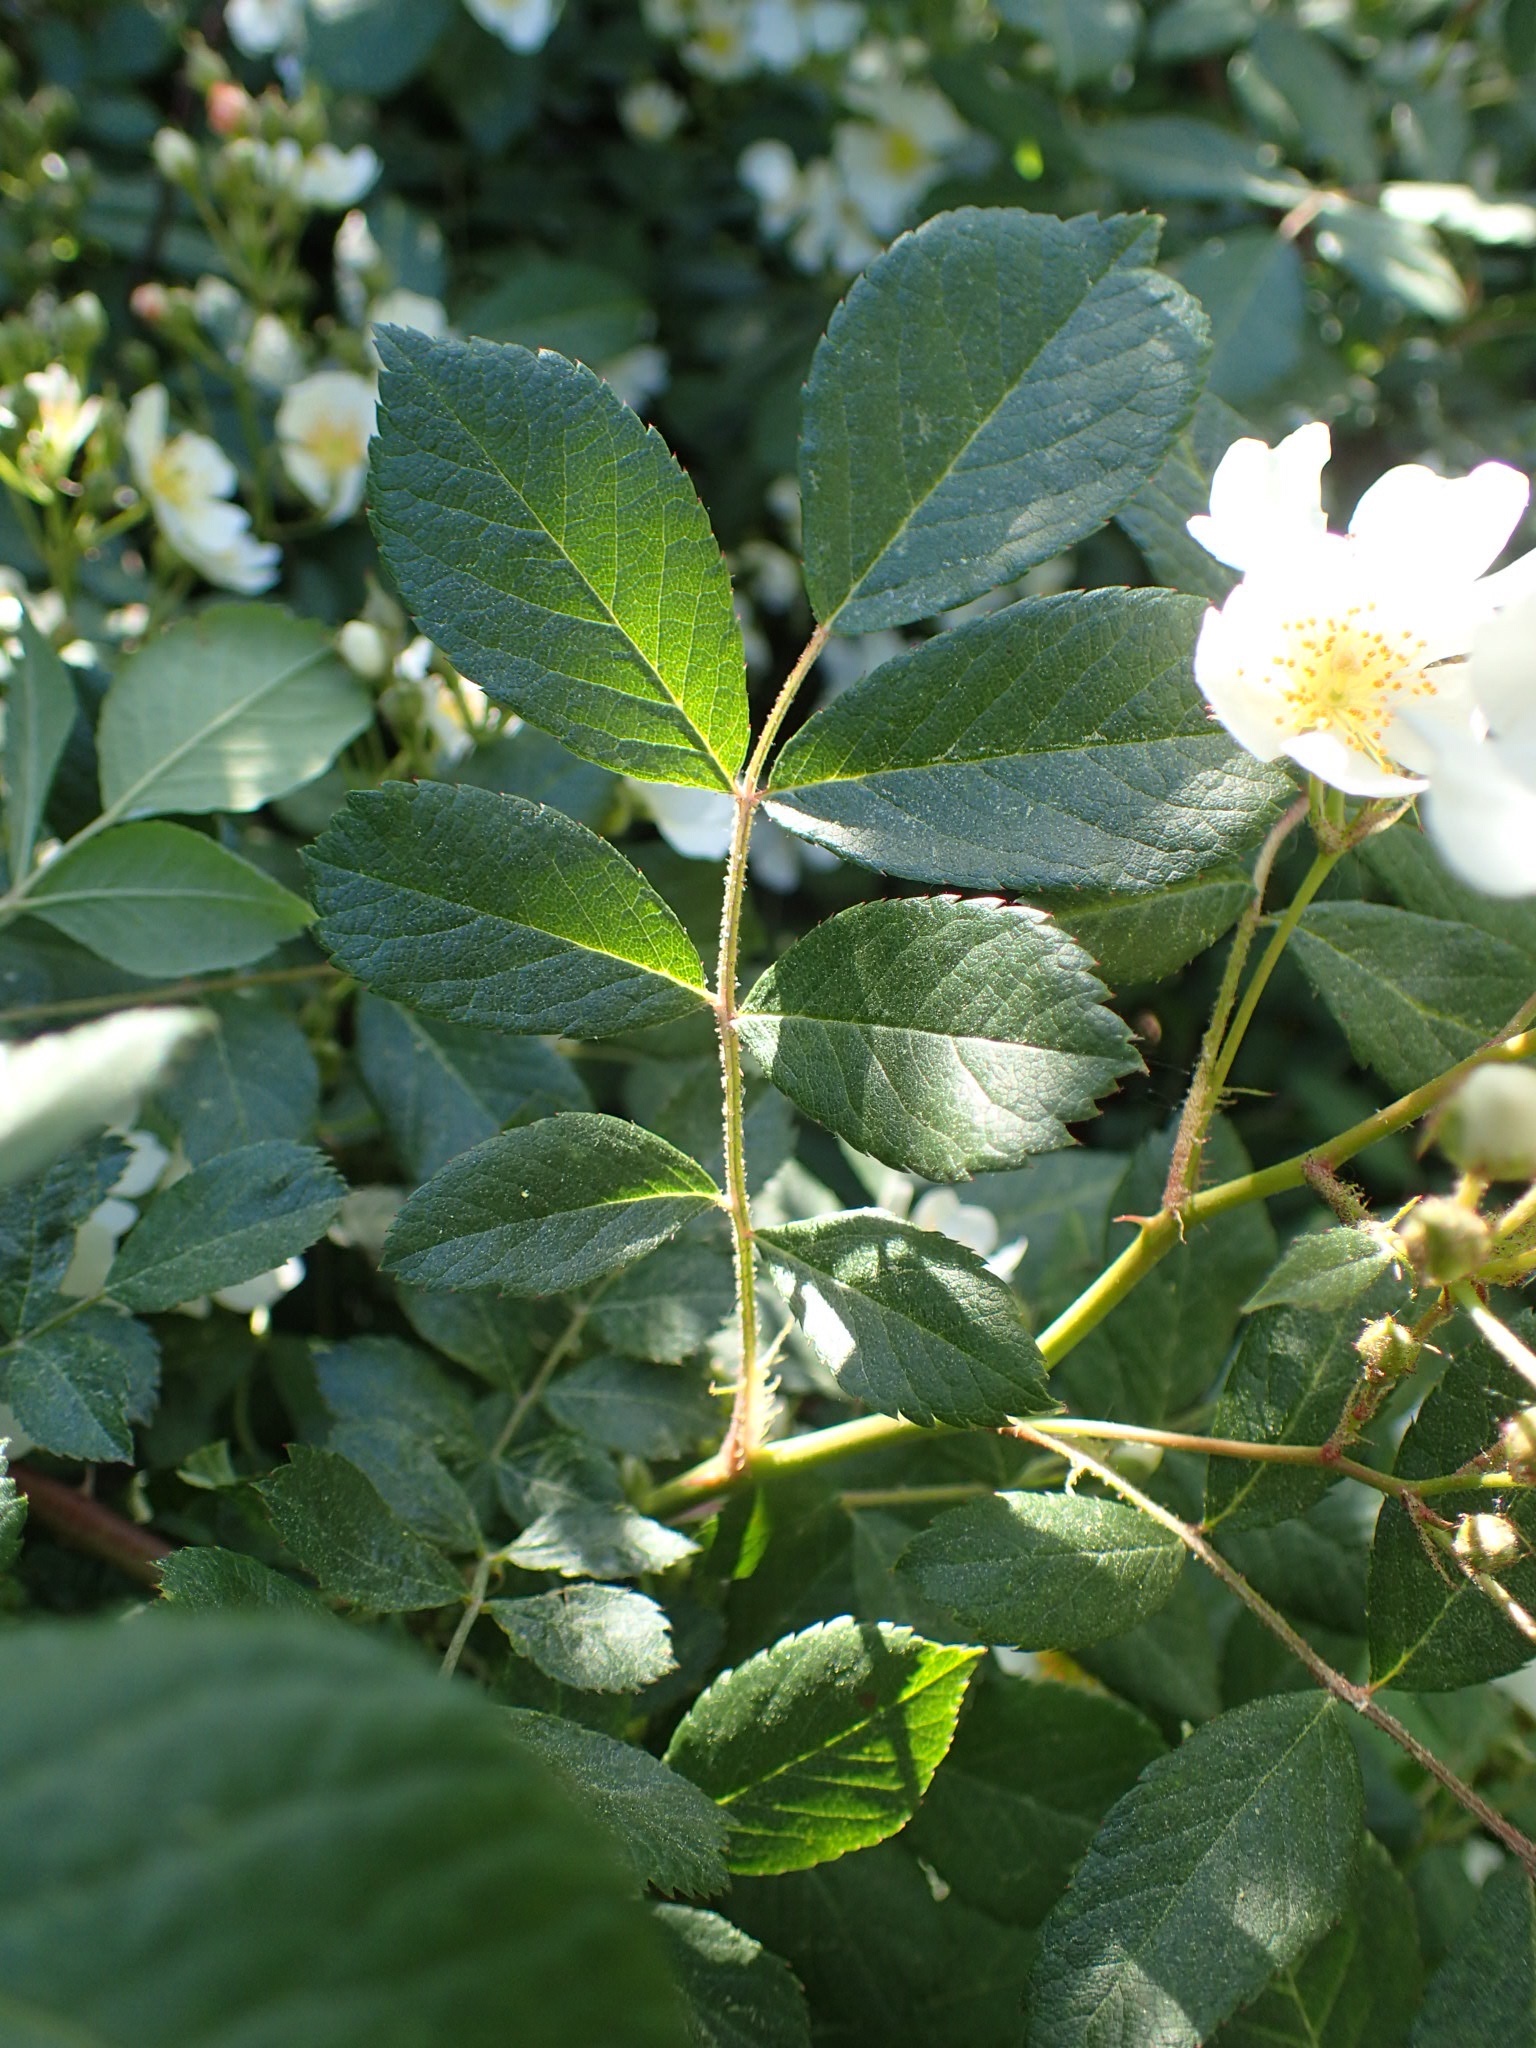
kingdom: Plantae
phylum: Tracheophyta
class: Magnoliopsida
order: Rosales
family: Rosaceae
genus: Rosa
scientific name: Rosa multiflora
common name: Multiflora rose
